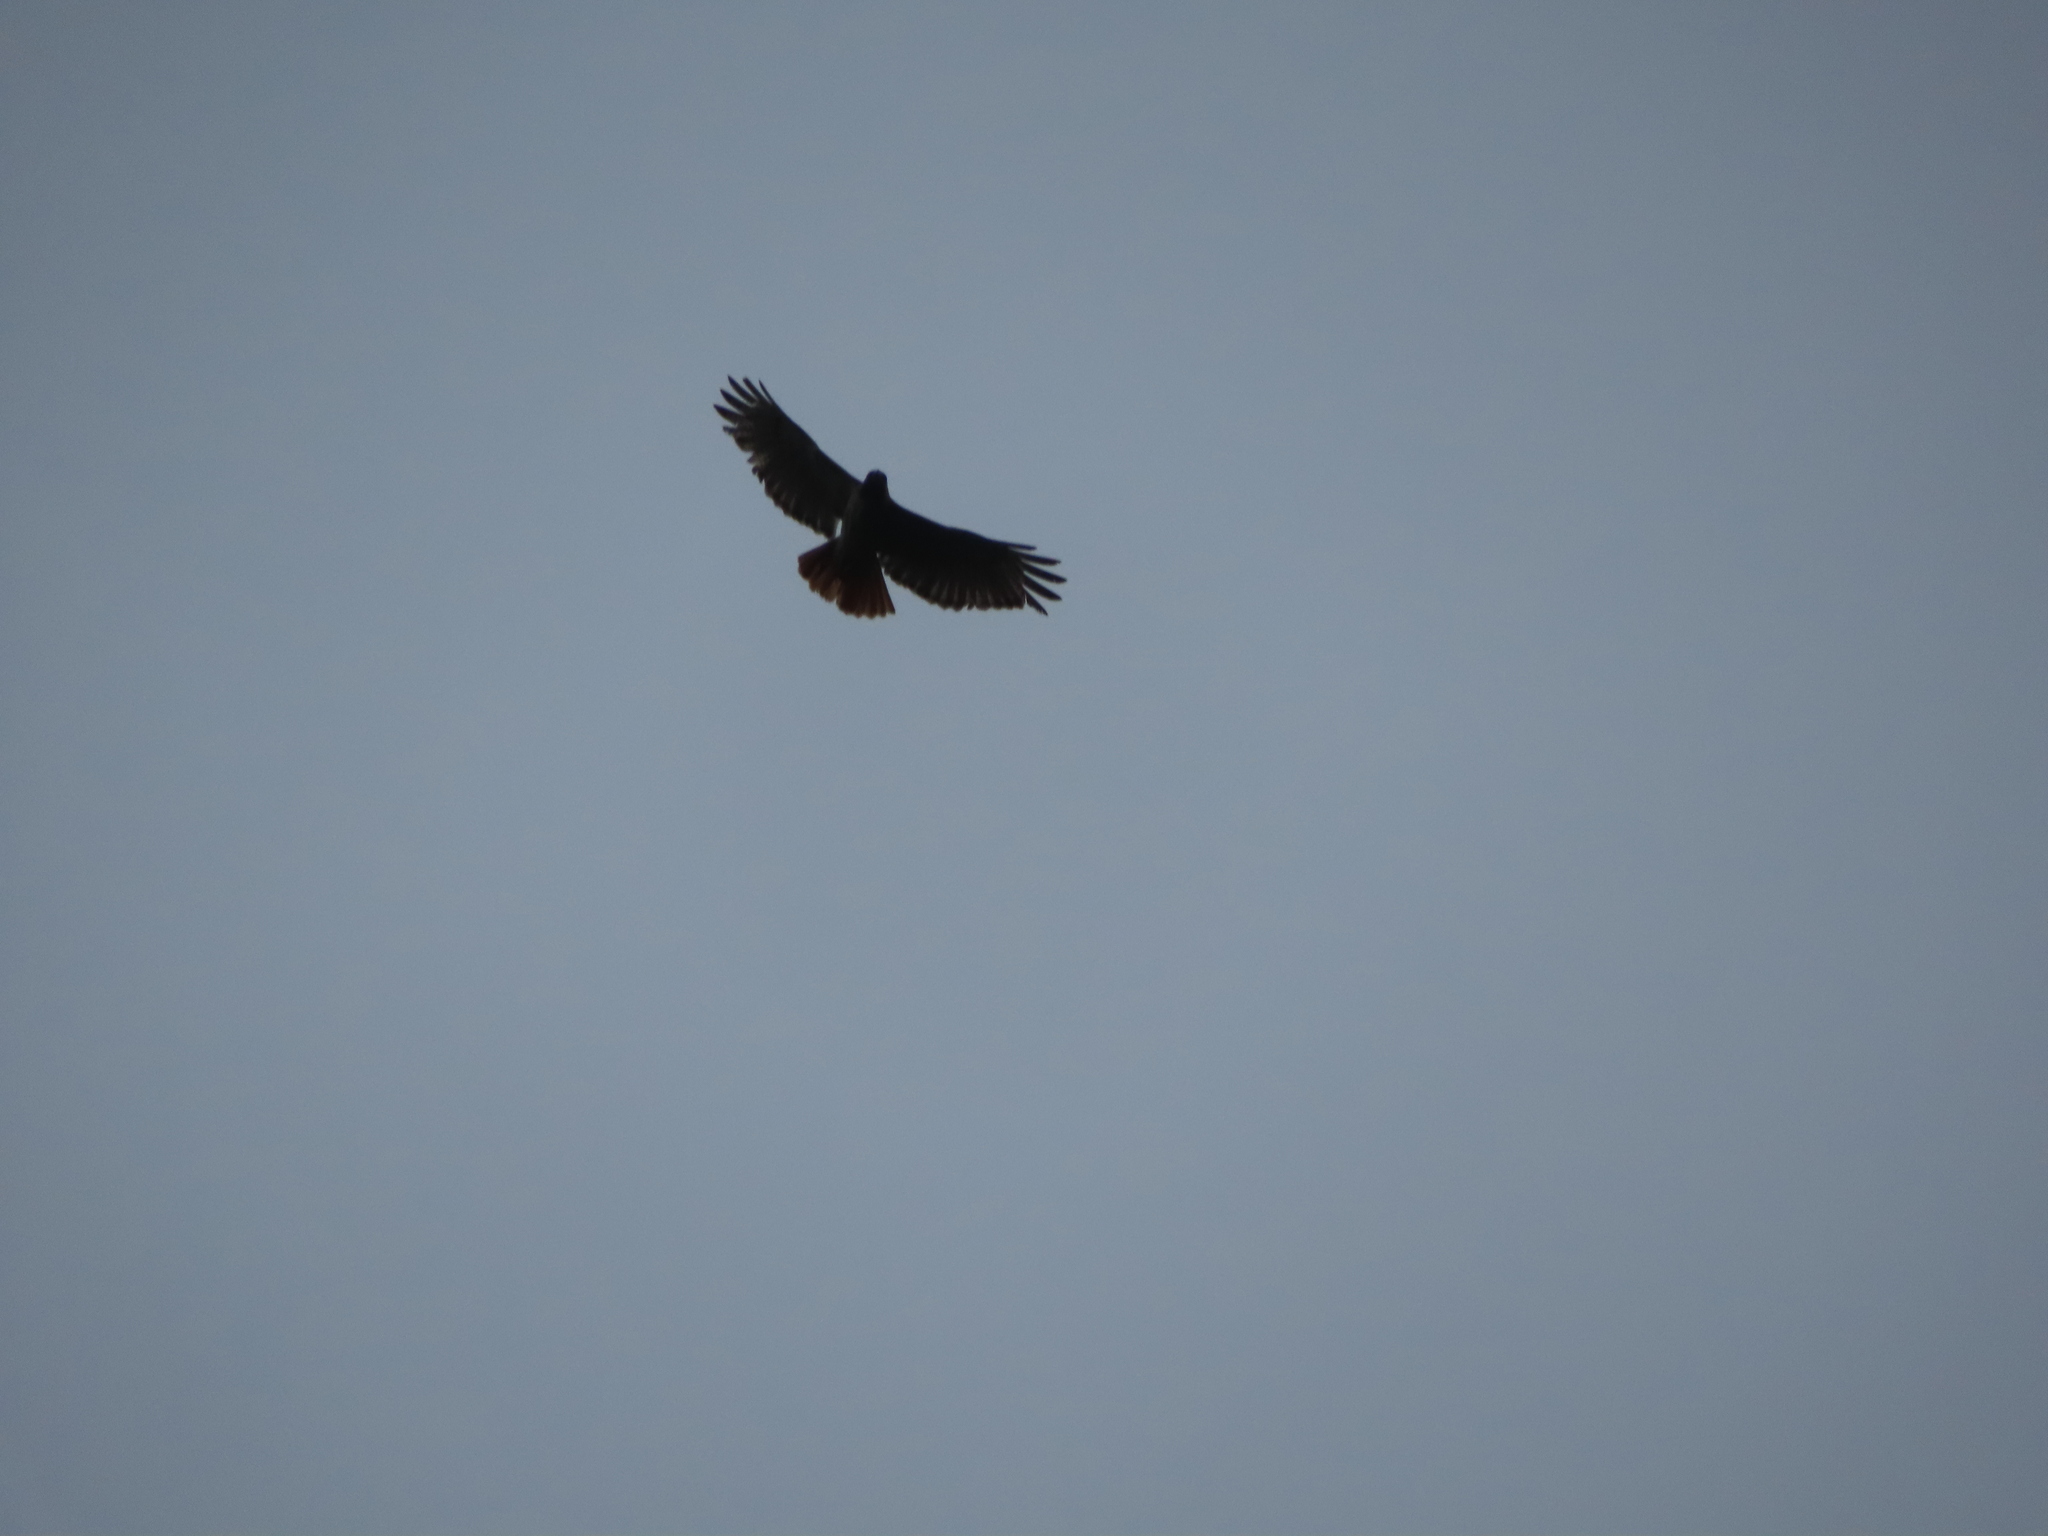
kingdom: Animalia
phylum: Chordata
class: Aves
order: Accipitriformes
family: Accipitridae
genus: Buteo
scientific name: Buteo jamaicensis
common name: Red-tailed hawk
